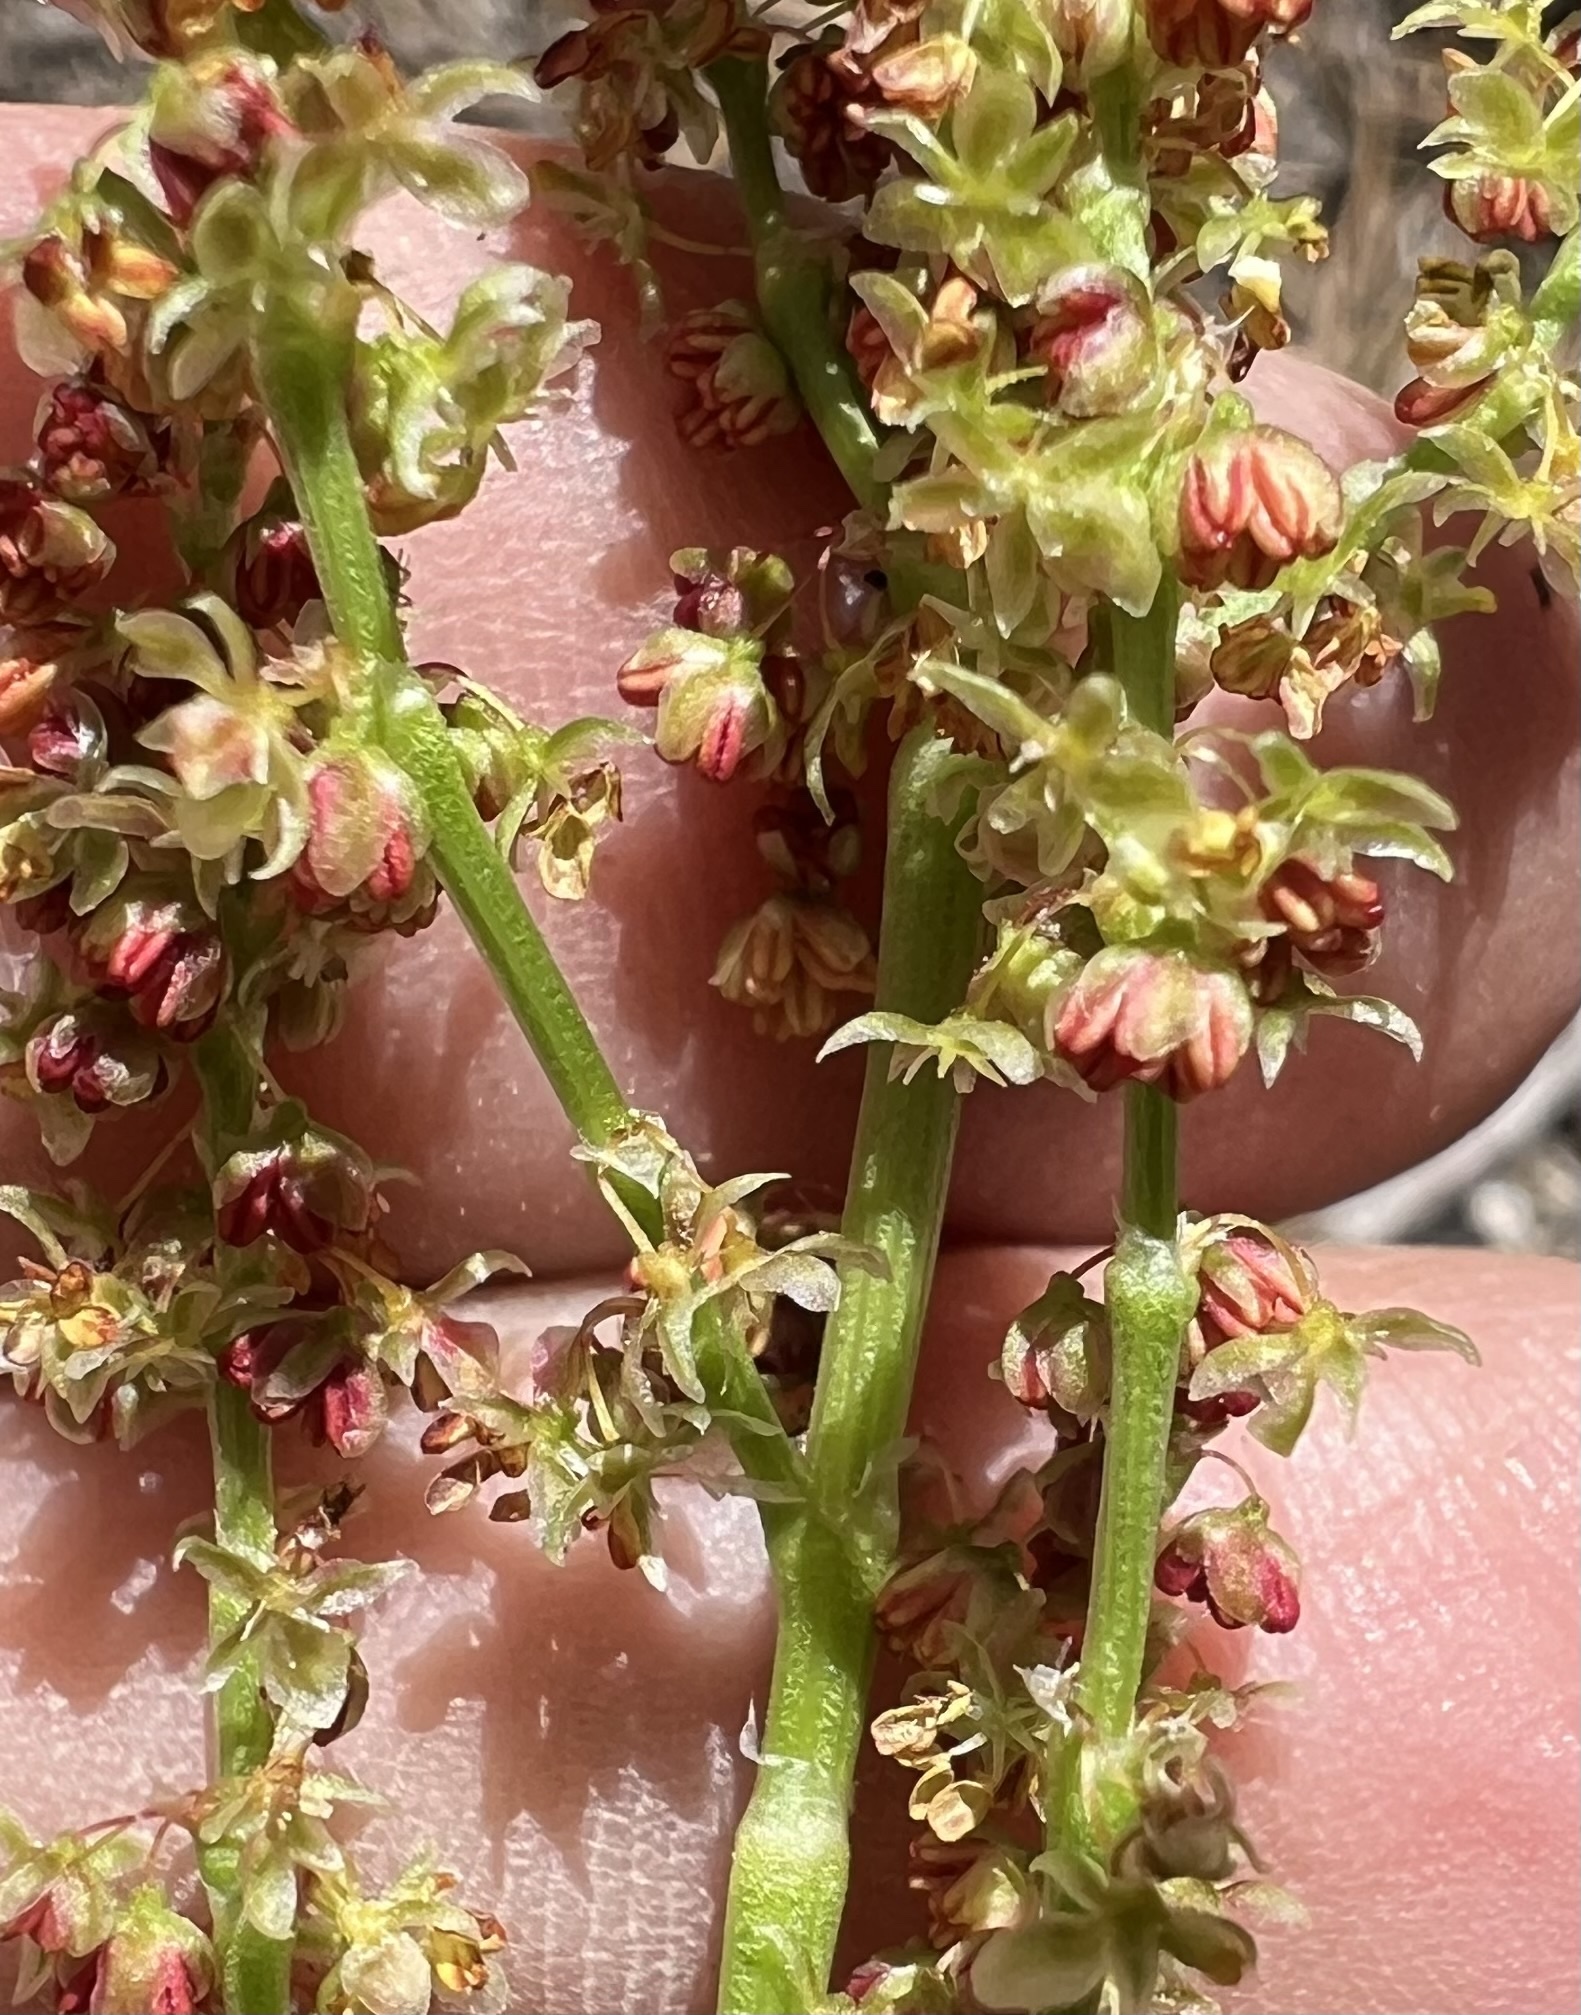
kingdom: Plantae
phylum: Tracheophyta
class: Magnoliopsida
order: Caryophyllales
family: Polygonaceae
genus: Rumex
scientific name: Rumex acetosella
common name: Common sheep sorrel
